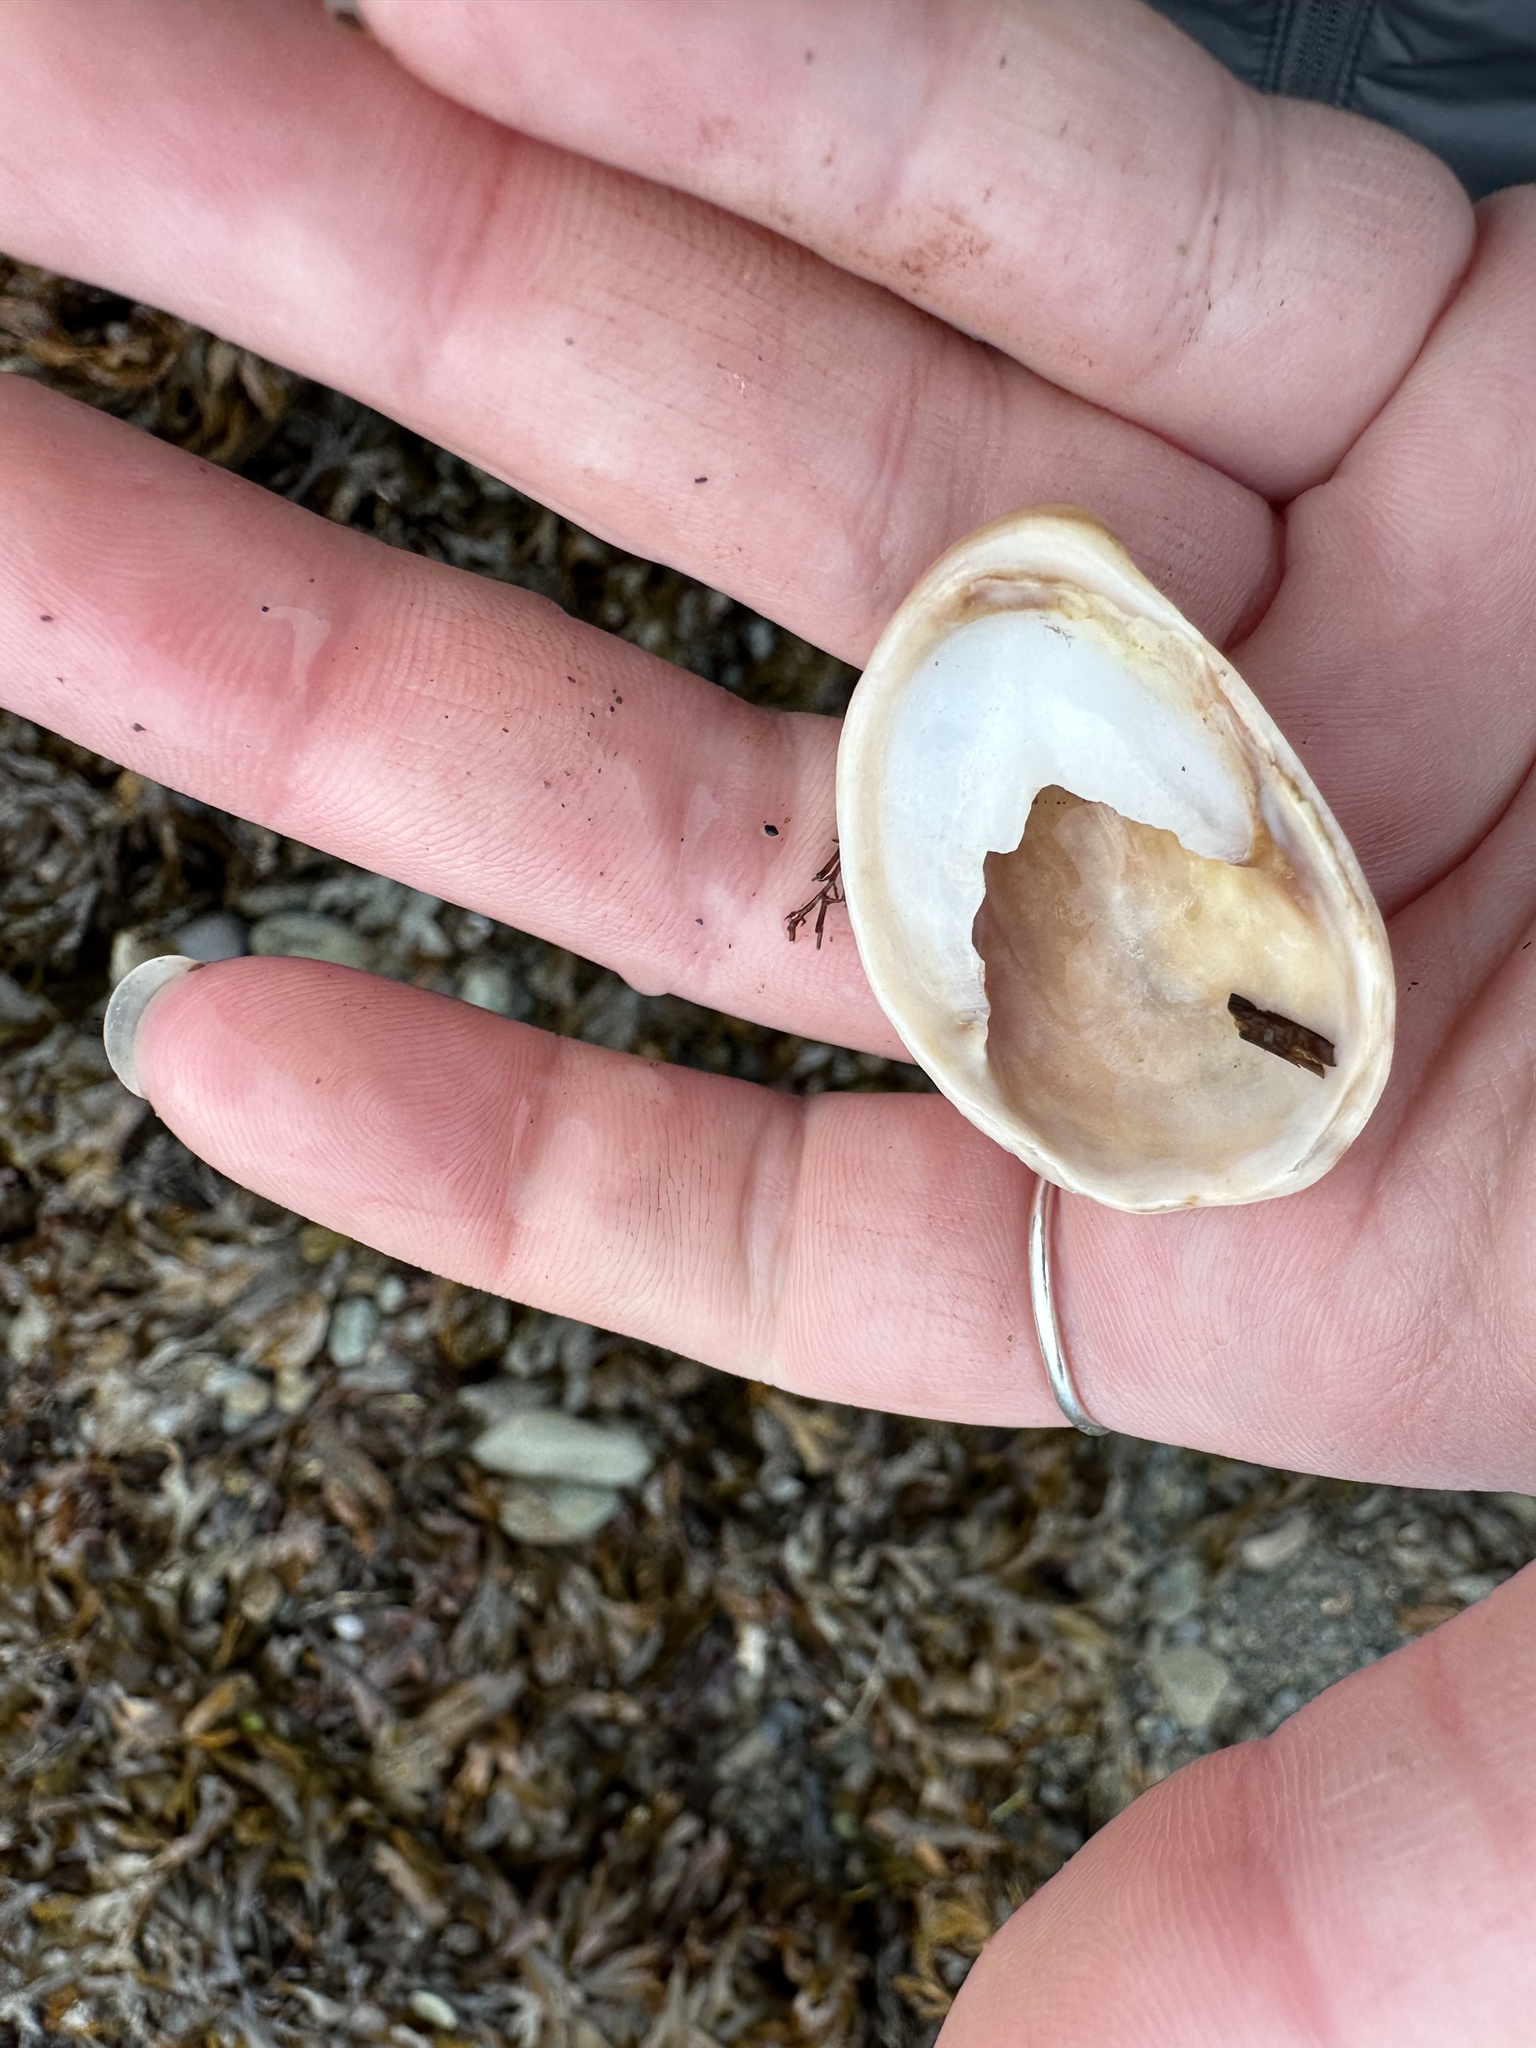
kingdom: Animalia
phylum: Mollusca
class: Gastropoda
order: Littorinimorpha
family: Calyptraeidae
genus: Crepidula
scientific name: Crepidula fornicata
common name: Slipper limpet
